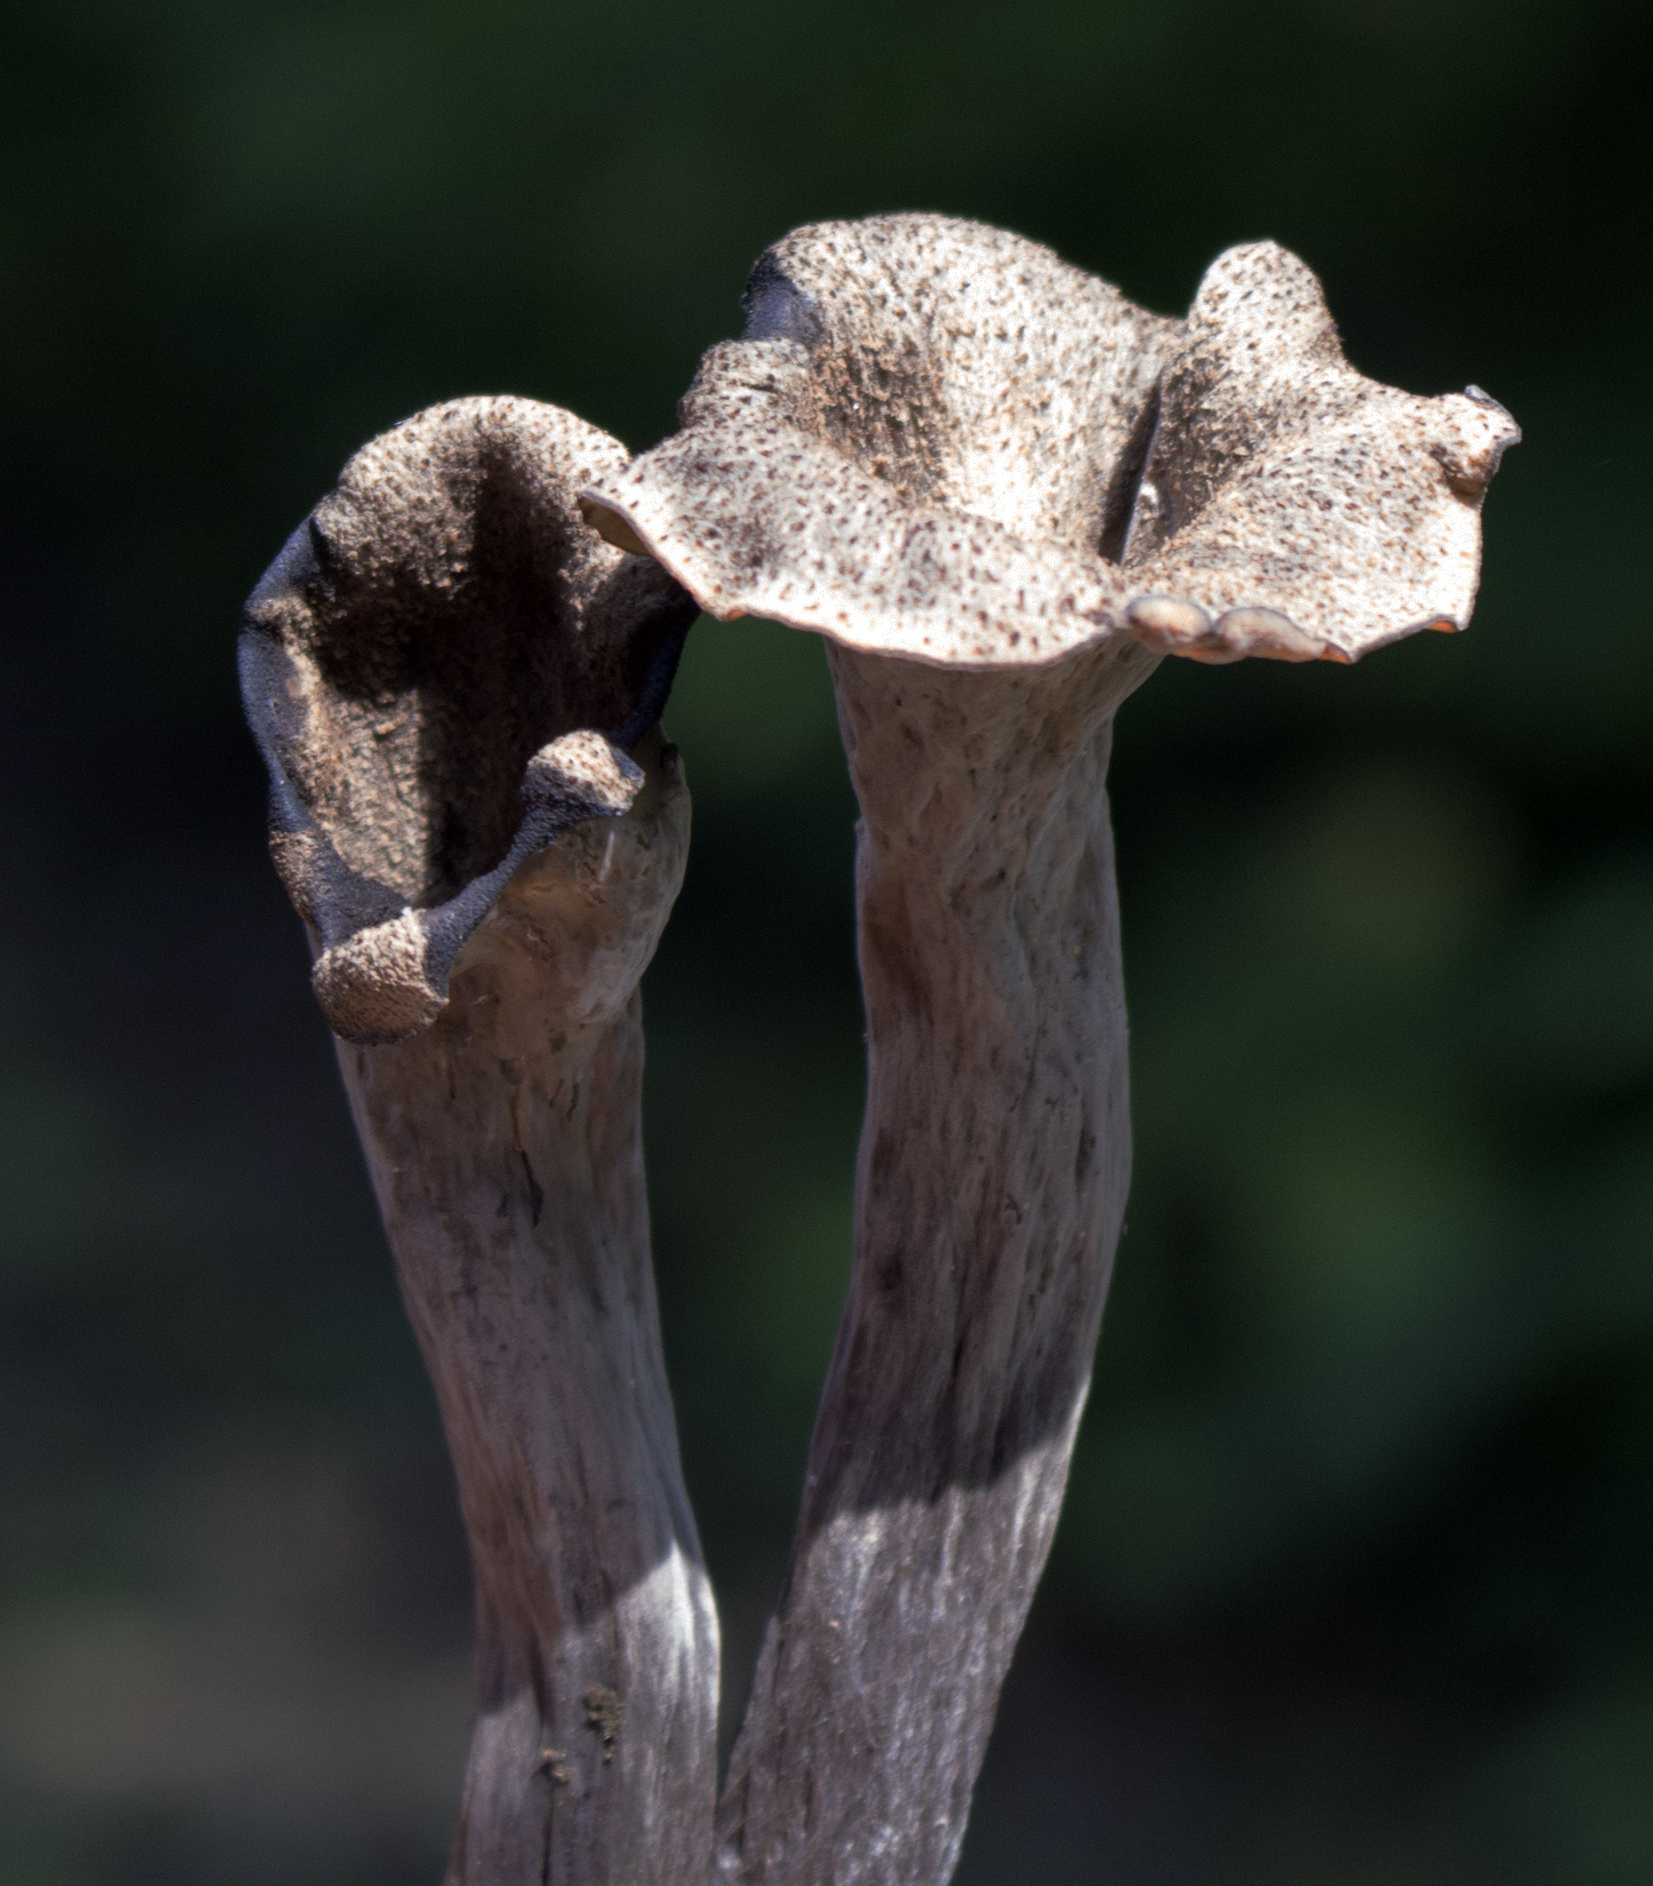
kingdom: Fungi
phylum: Basidiomycota
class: Agaricomycetes
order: Cantharellales
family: Hydnaceae
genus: Craterellus
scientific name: Craterellus cornucopioides
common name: Horn of plenty
